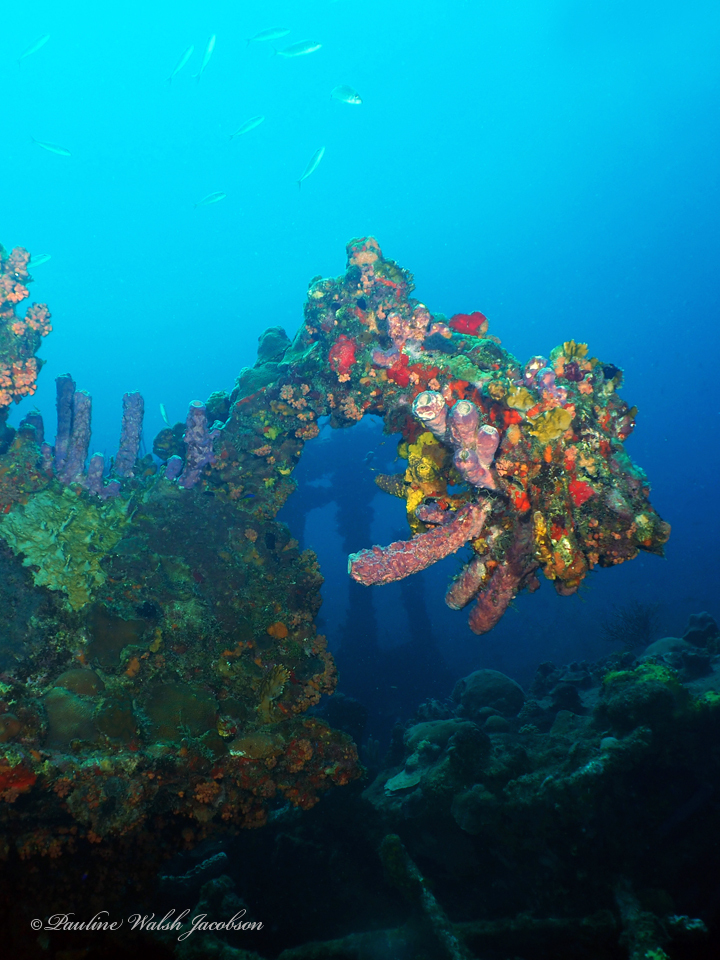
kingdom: Animalia
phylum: Porifera
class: Demospongiae
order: Verongiida
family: Aplysinidae
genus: Aplysina
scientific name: Aplysina archeri
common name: Stove-pipe sponge
